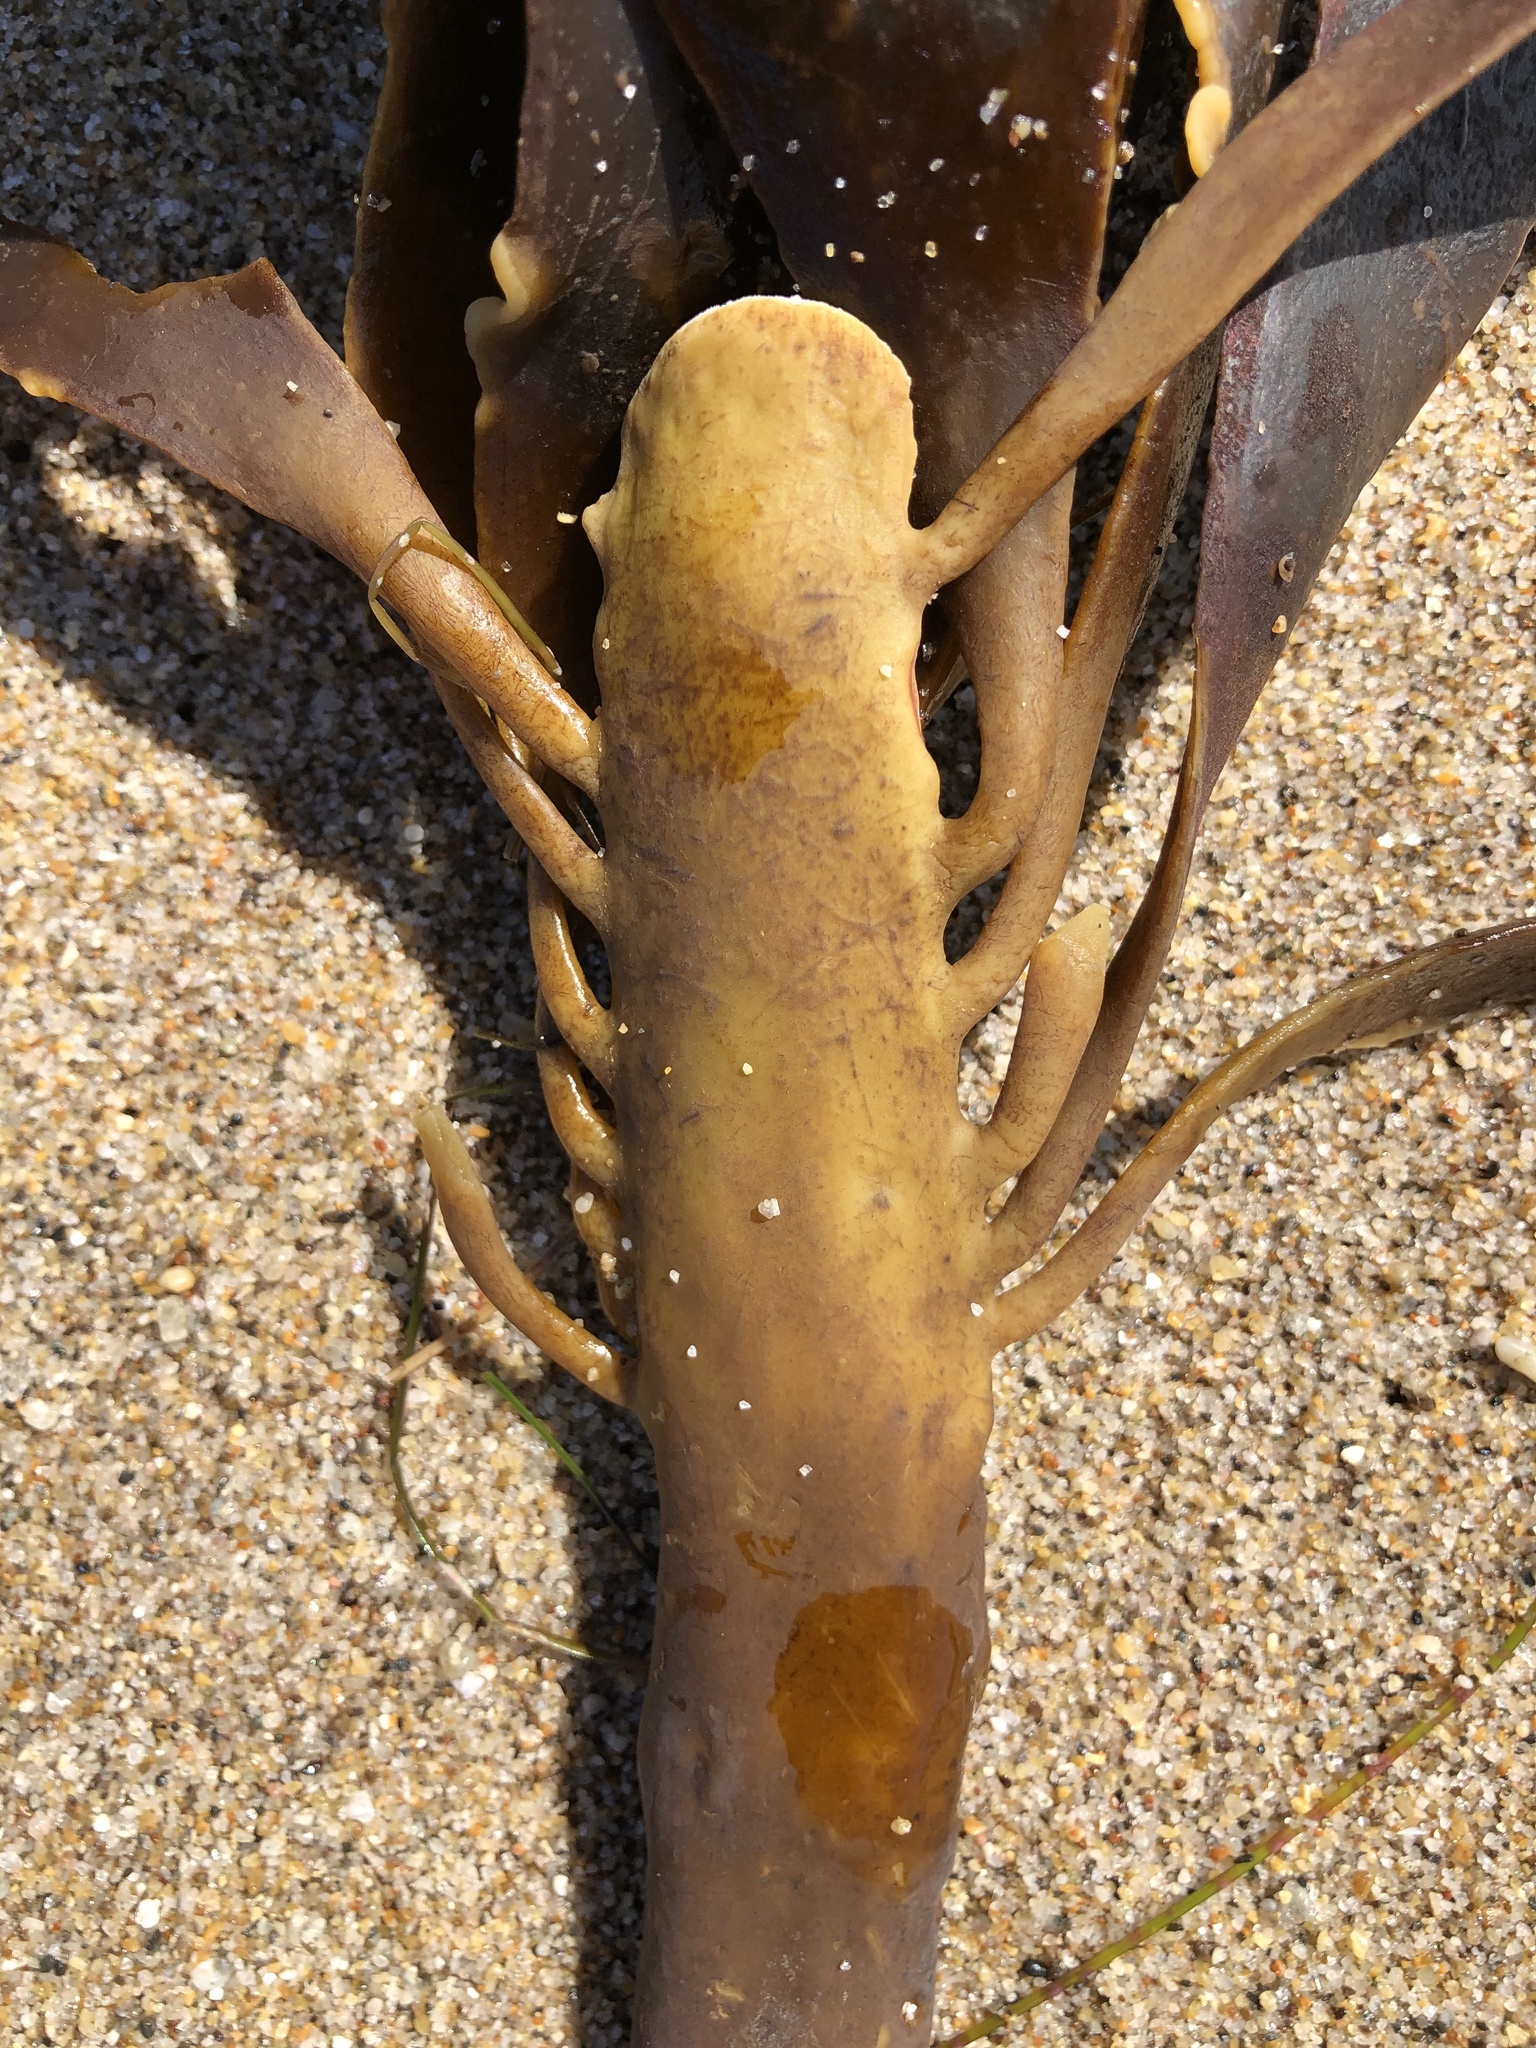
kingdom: Chromista
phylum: Ochrophyta
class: Phaeophyceae
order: Laminariales
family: Alariaceae
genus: Pterygophora
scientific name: Pterygophora californica
